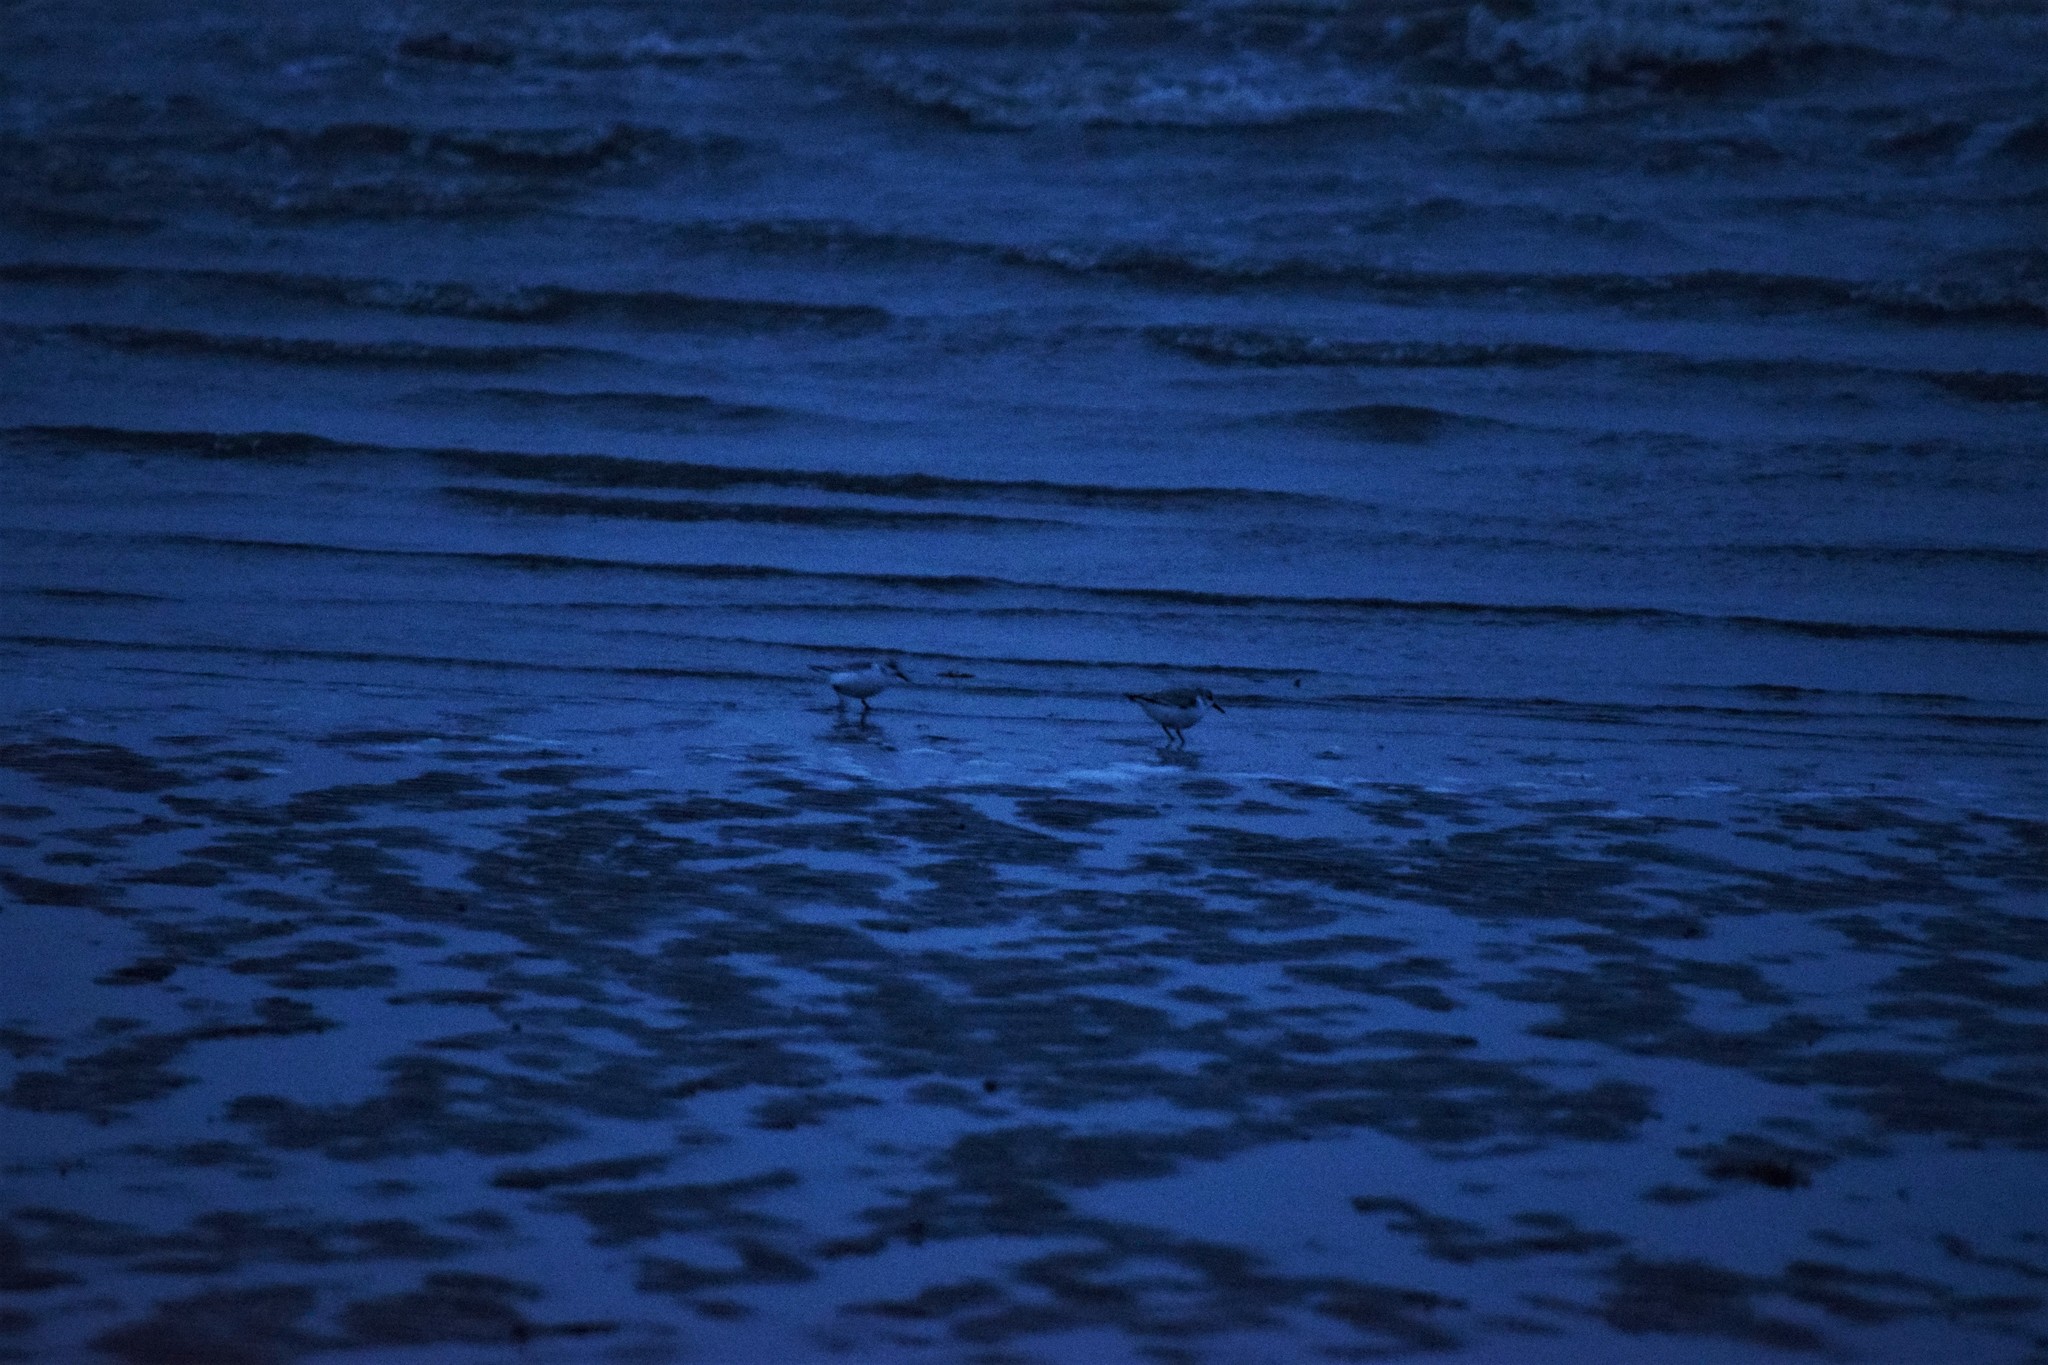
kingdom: Animalia
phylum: Chordata
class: Aves
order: Charadriiformes
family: Scolopacidae
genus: Calidris
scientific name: Calidris alba
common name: Sanderling
